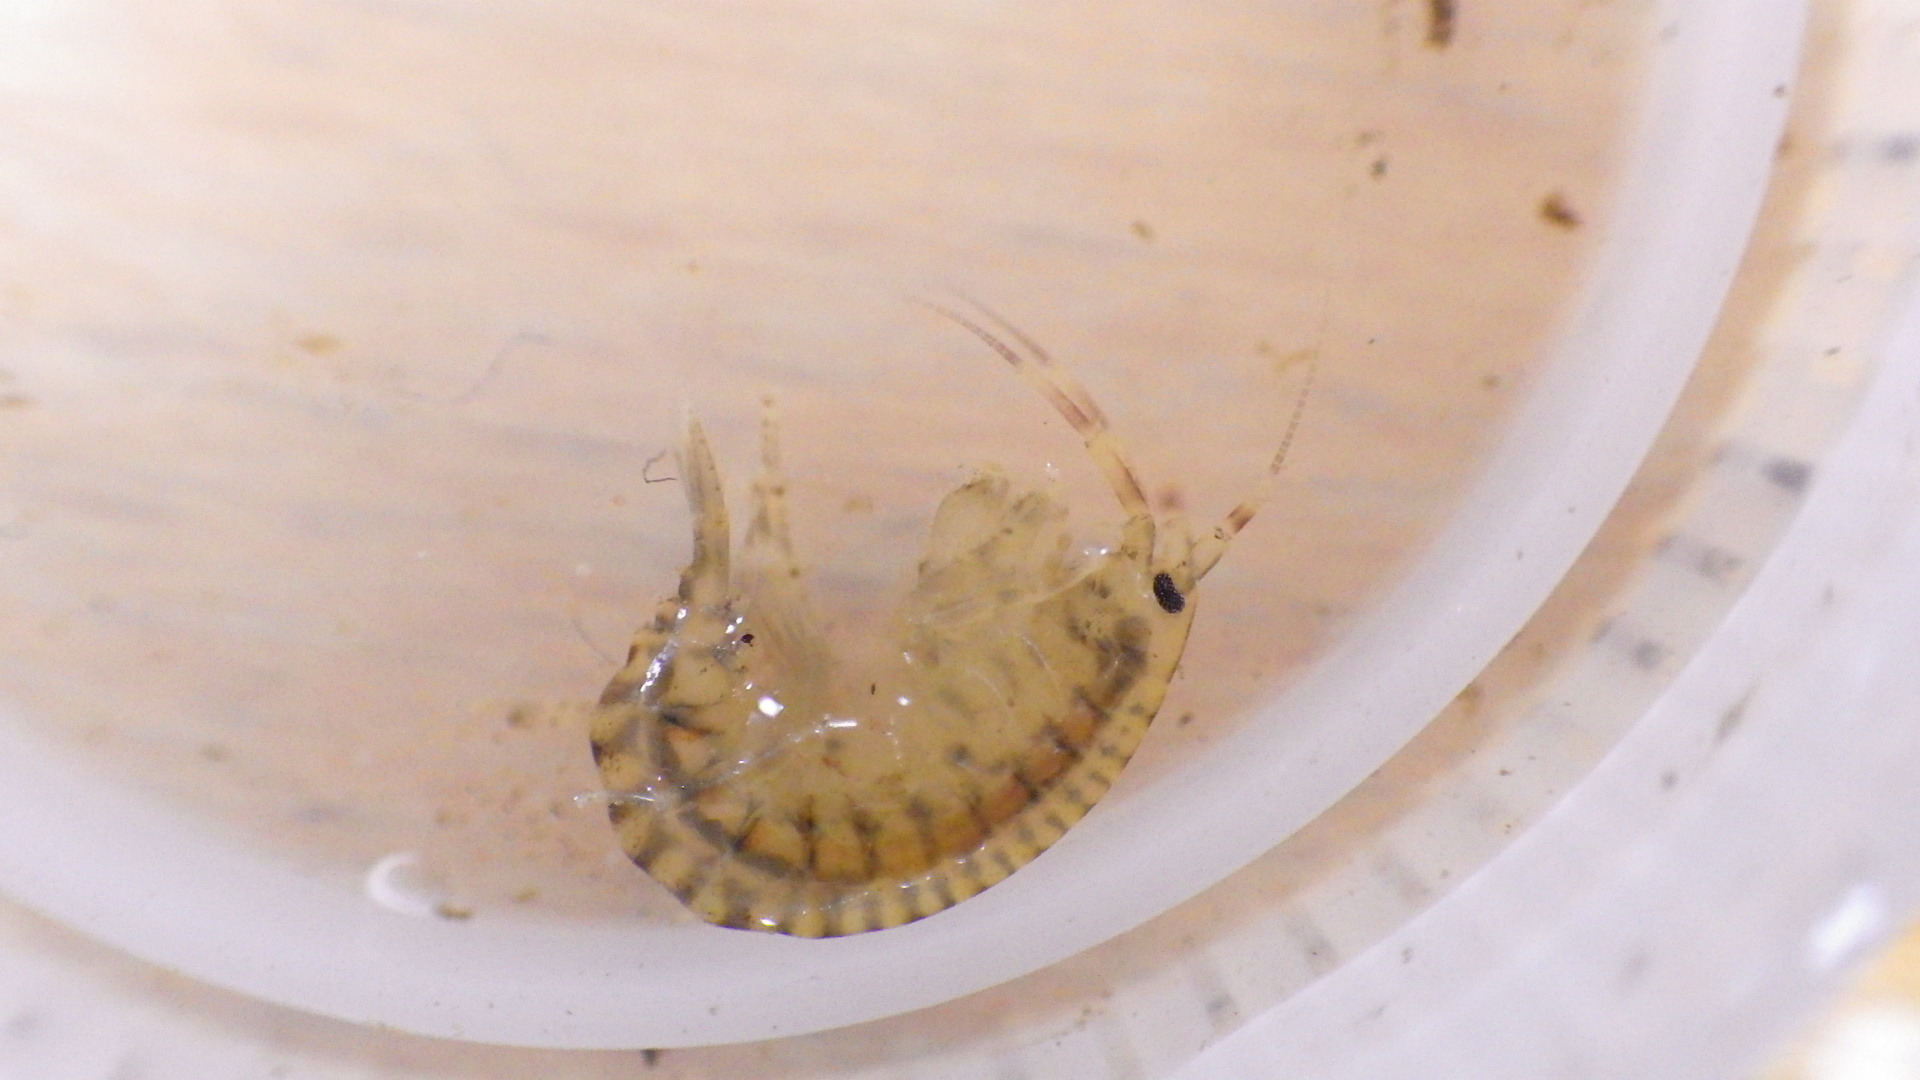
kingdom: Animalia
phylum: Arthropoda
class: Malacostraca
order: Amphipoda
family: Gammaridae
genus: Gammarus
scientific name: Gammarus fasciatus
